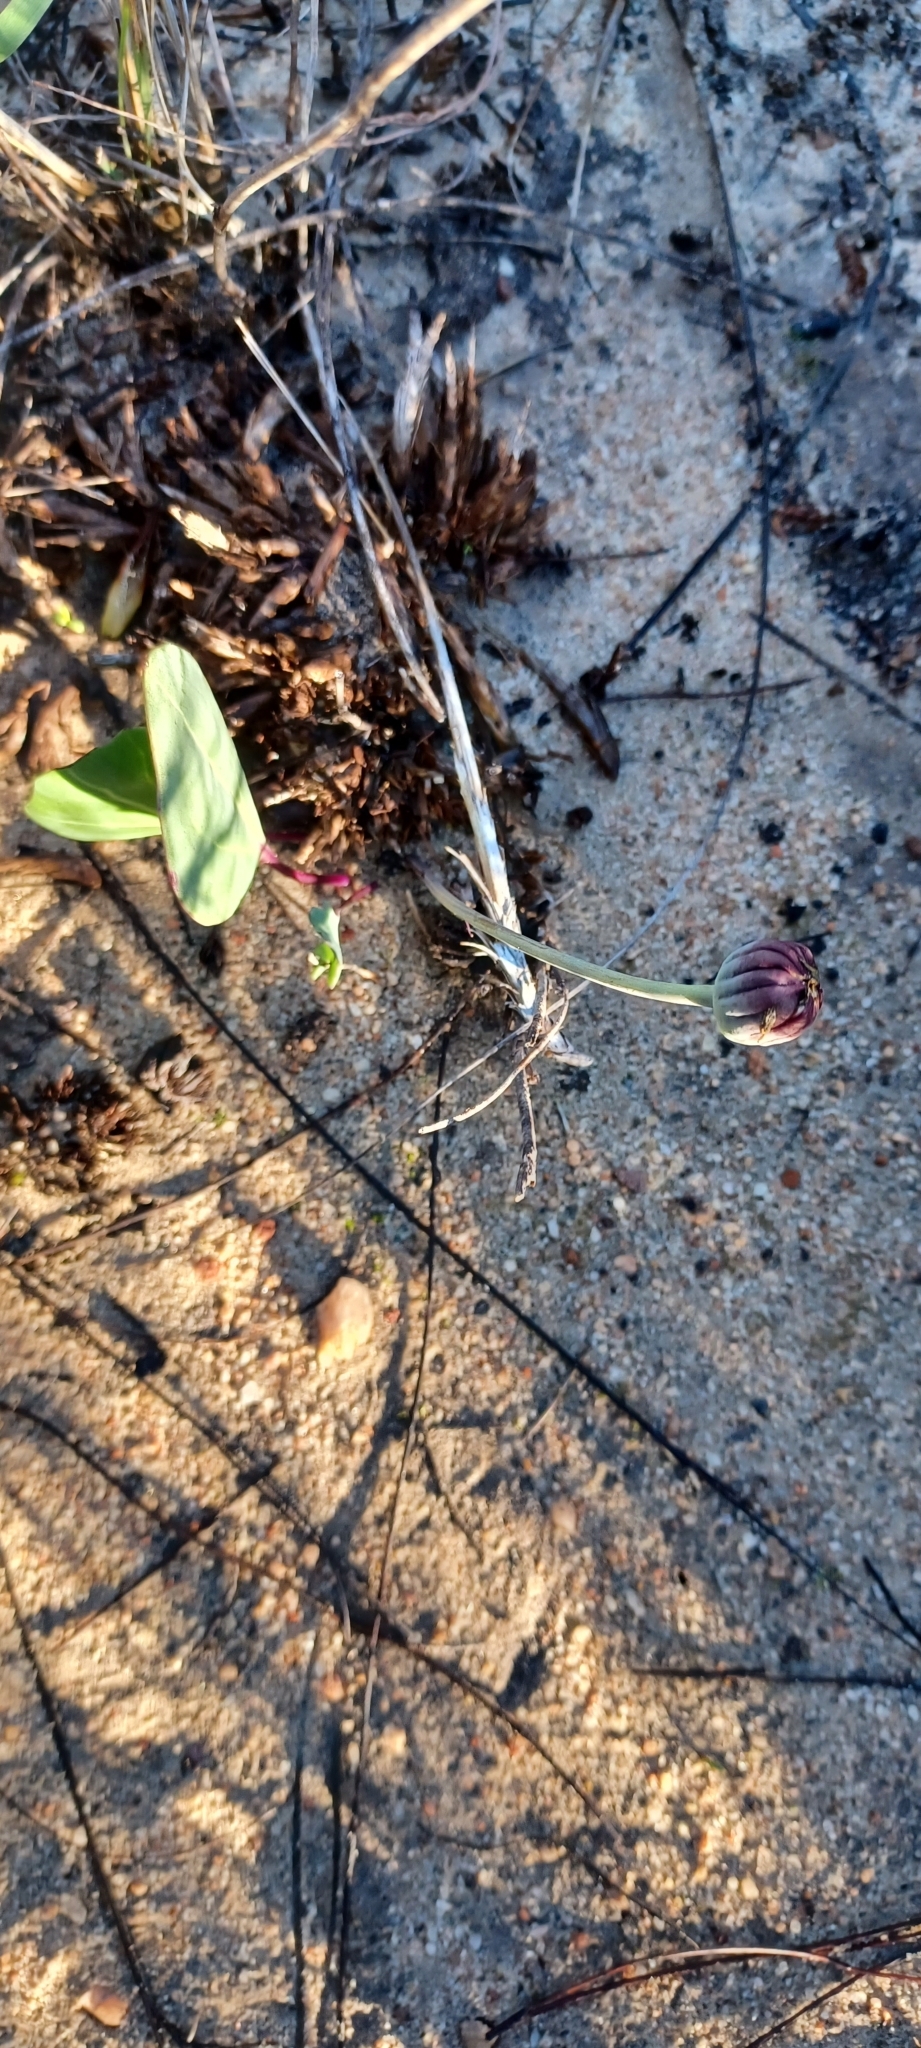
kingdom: Plantae
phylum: Tracheophyta
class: Magnoliopsida
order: Asterales
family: Asteraceae
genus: Othonna
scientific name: Othonna hederifolia
